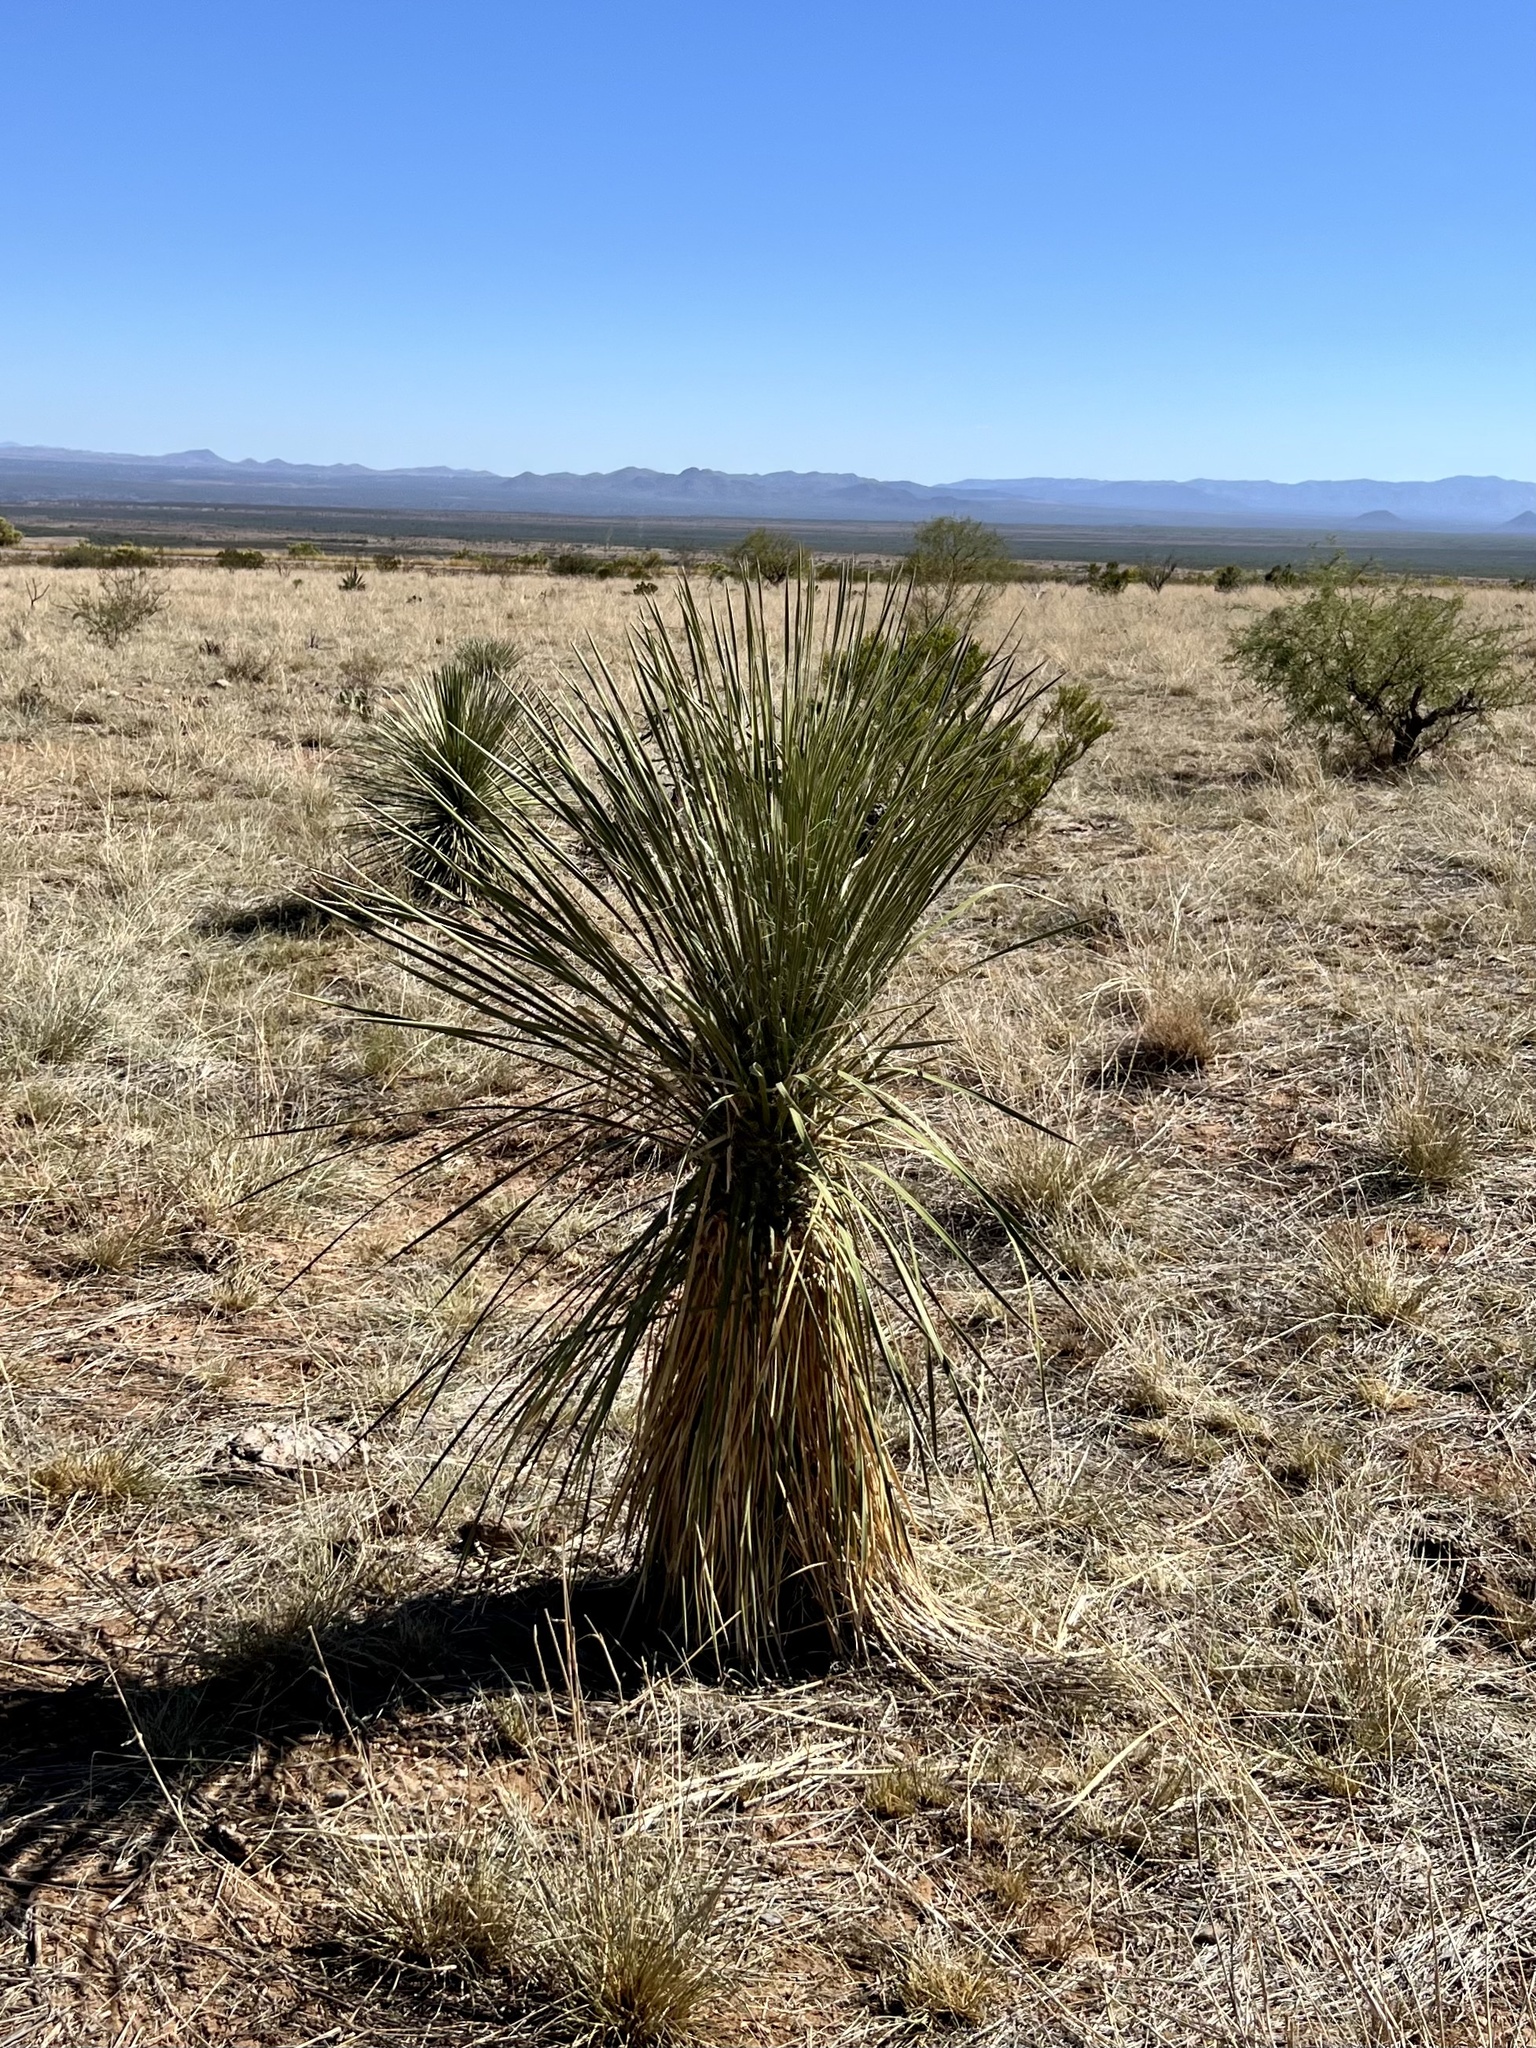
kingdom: Plantae
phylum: Tracheophyta
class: Liliopsida
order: Asparagales
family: Asparagaceae
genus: Yucca
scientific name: Yucca elata
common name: Palmella
